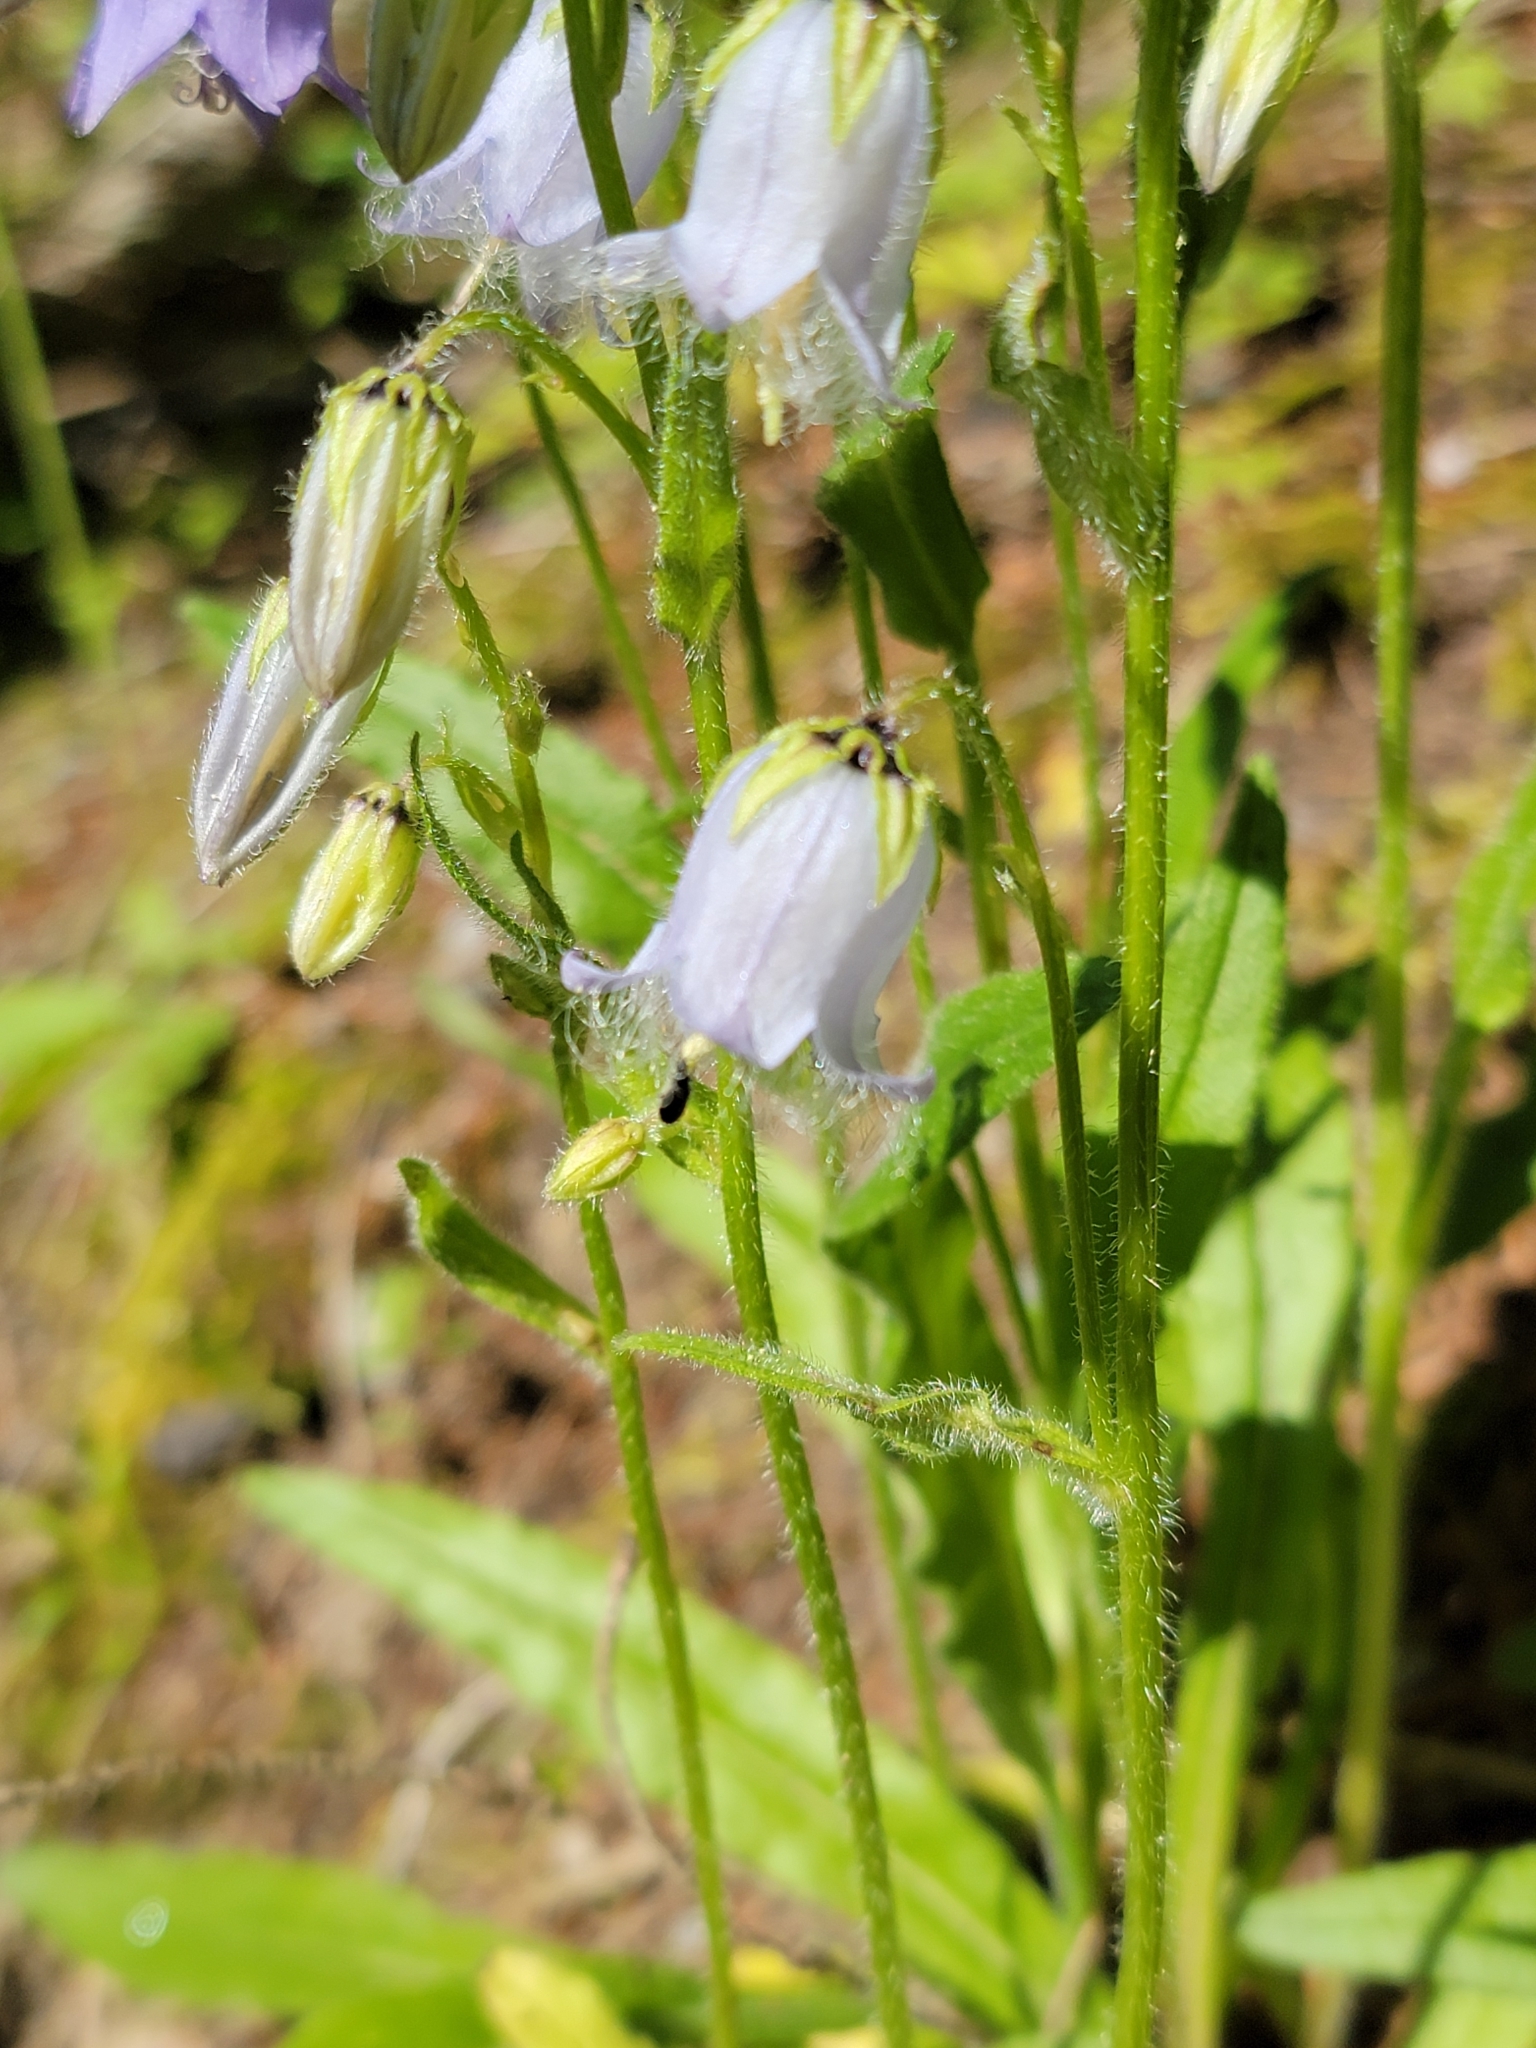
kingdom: Plantae
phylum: Tracheophyta
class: Magnoliopsida
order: Asterales
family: Campanulaceae
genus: Campanula
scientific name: Campanula barbata
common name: Bearded bellflower
